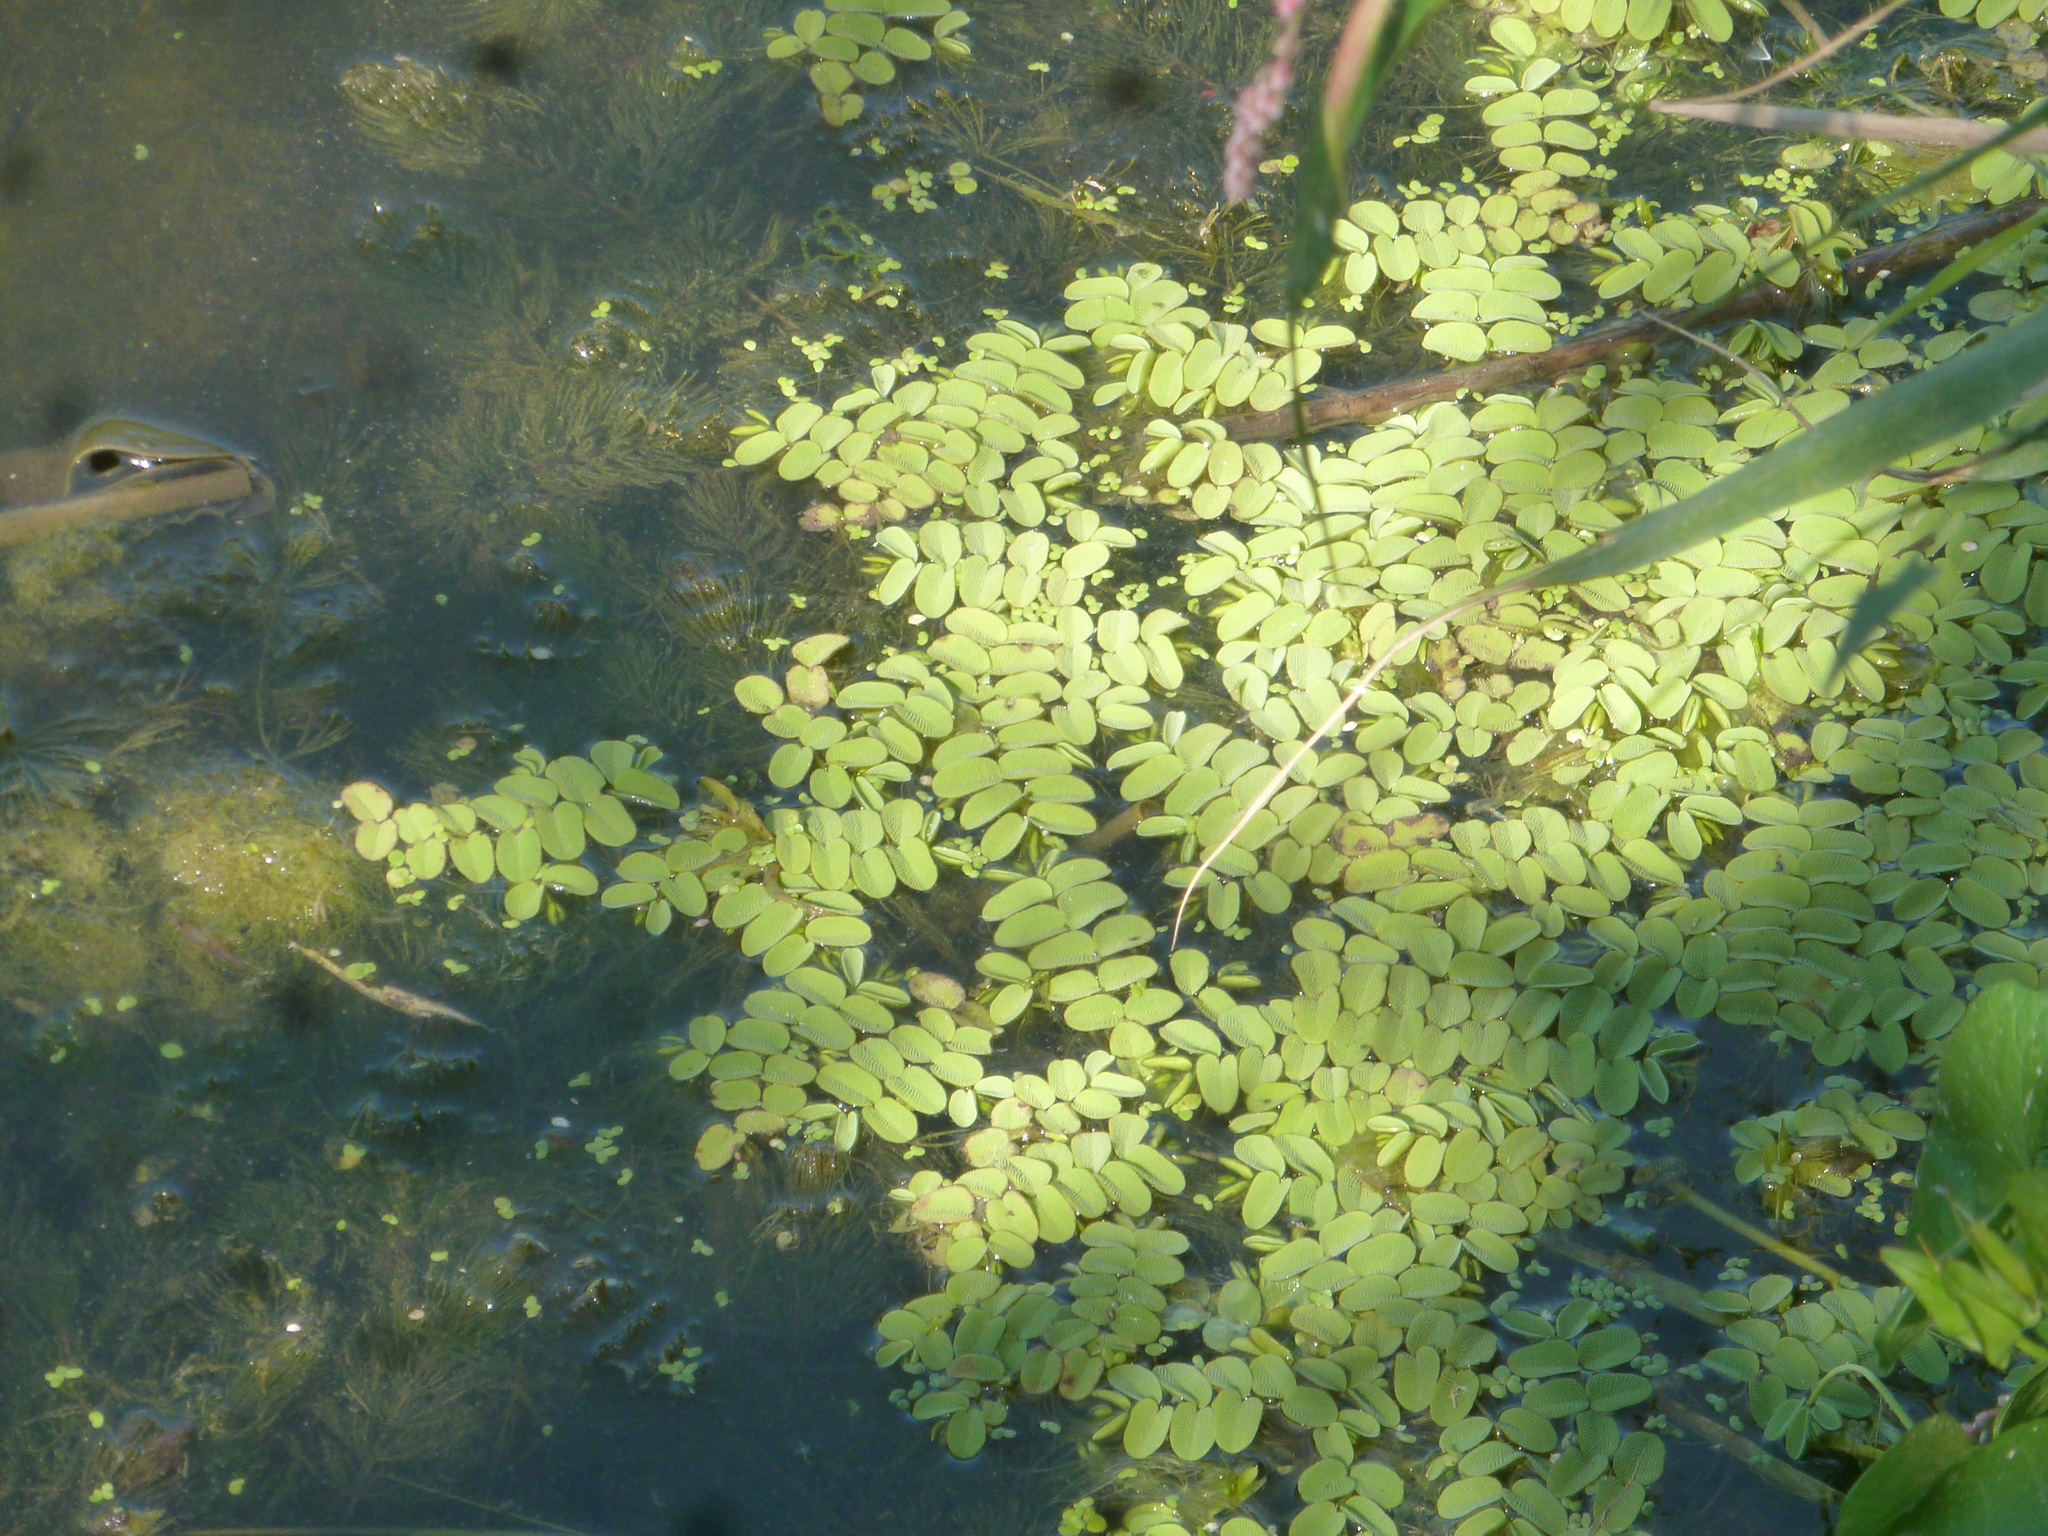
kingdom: Plantae
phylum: Tracheophyta
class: Polypodiopsida
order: Salviniales
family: Salviniaceae
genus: Salvinia
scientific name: Salvinia natans
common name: Floating fern
